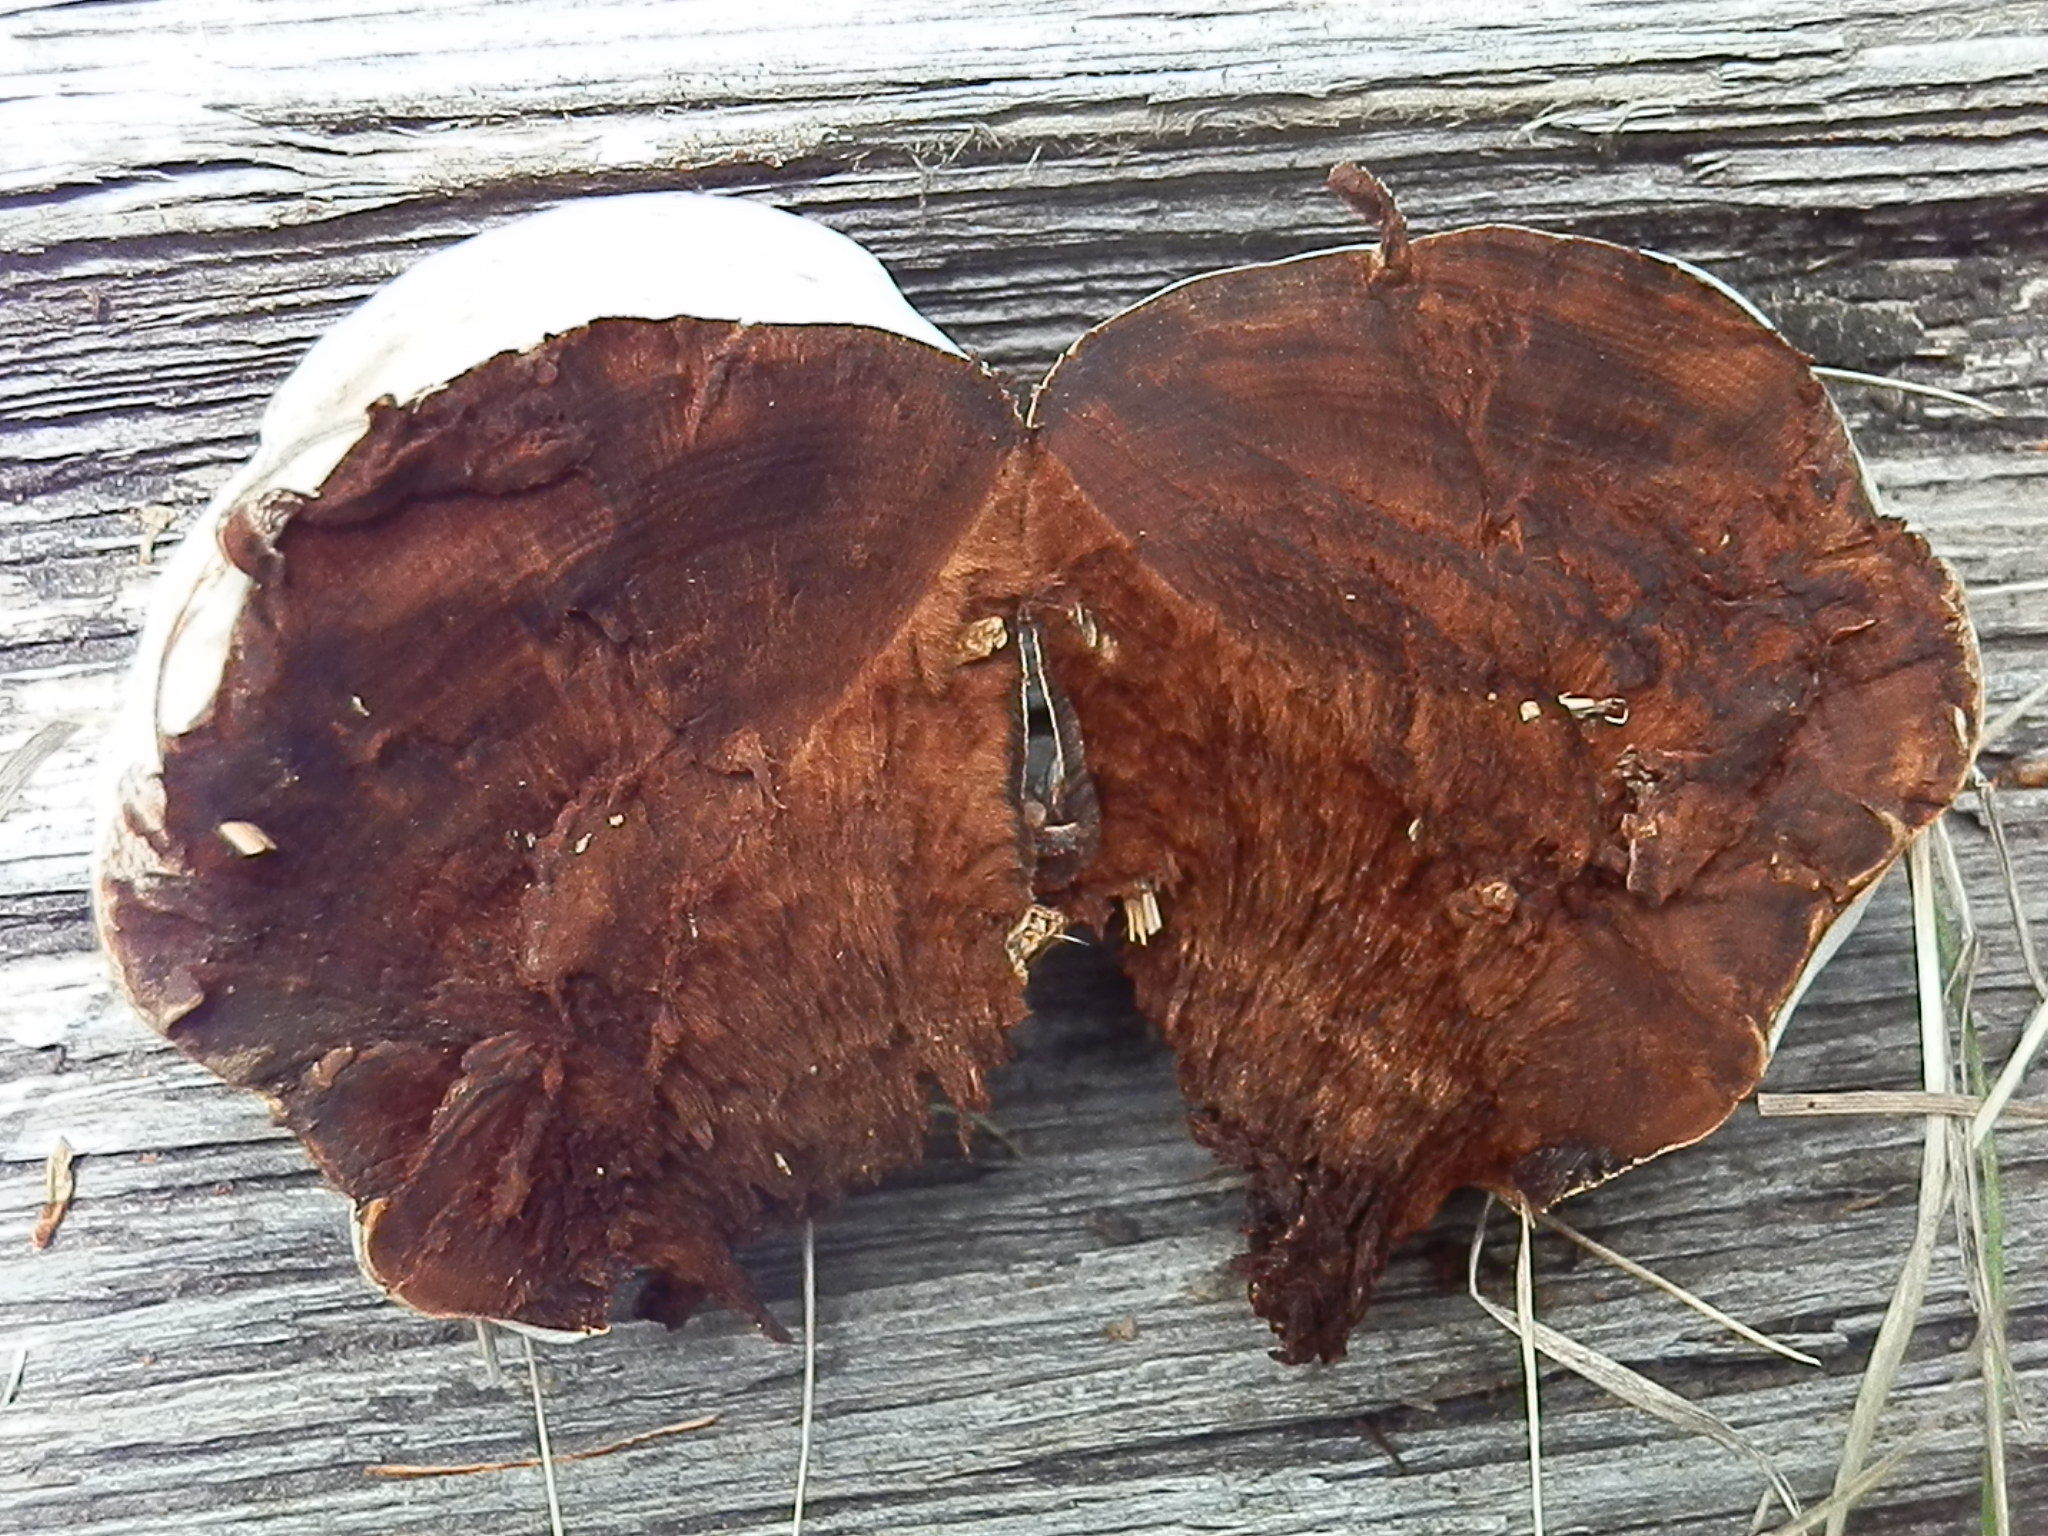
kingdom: Fungi
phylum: Basidiomycota
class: Agaricomycetes
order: Polyporales
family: Polyporaceae
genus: Ganoderma
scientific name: Ganoderma applanatum
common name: Artist's bracket
